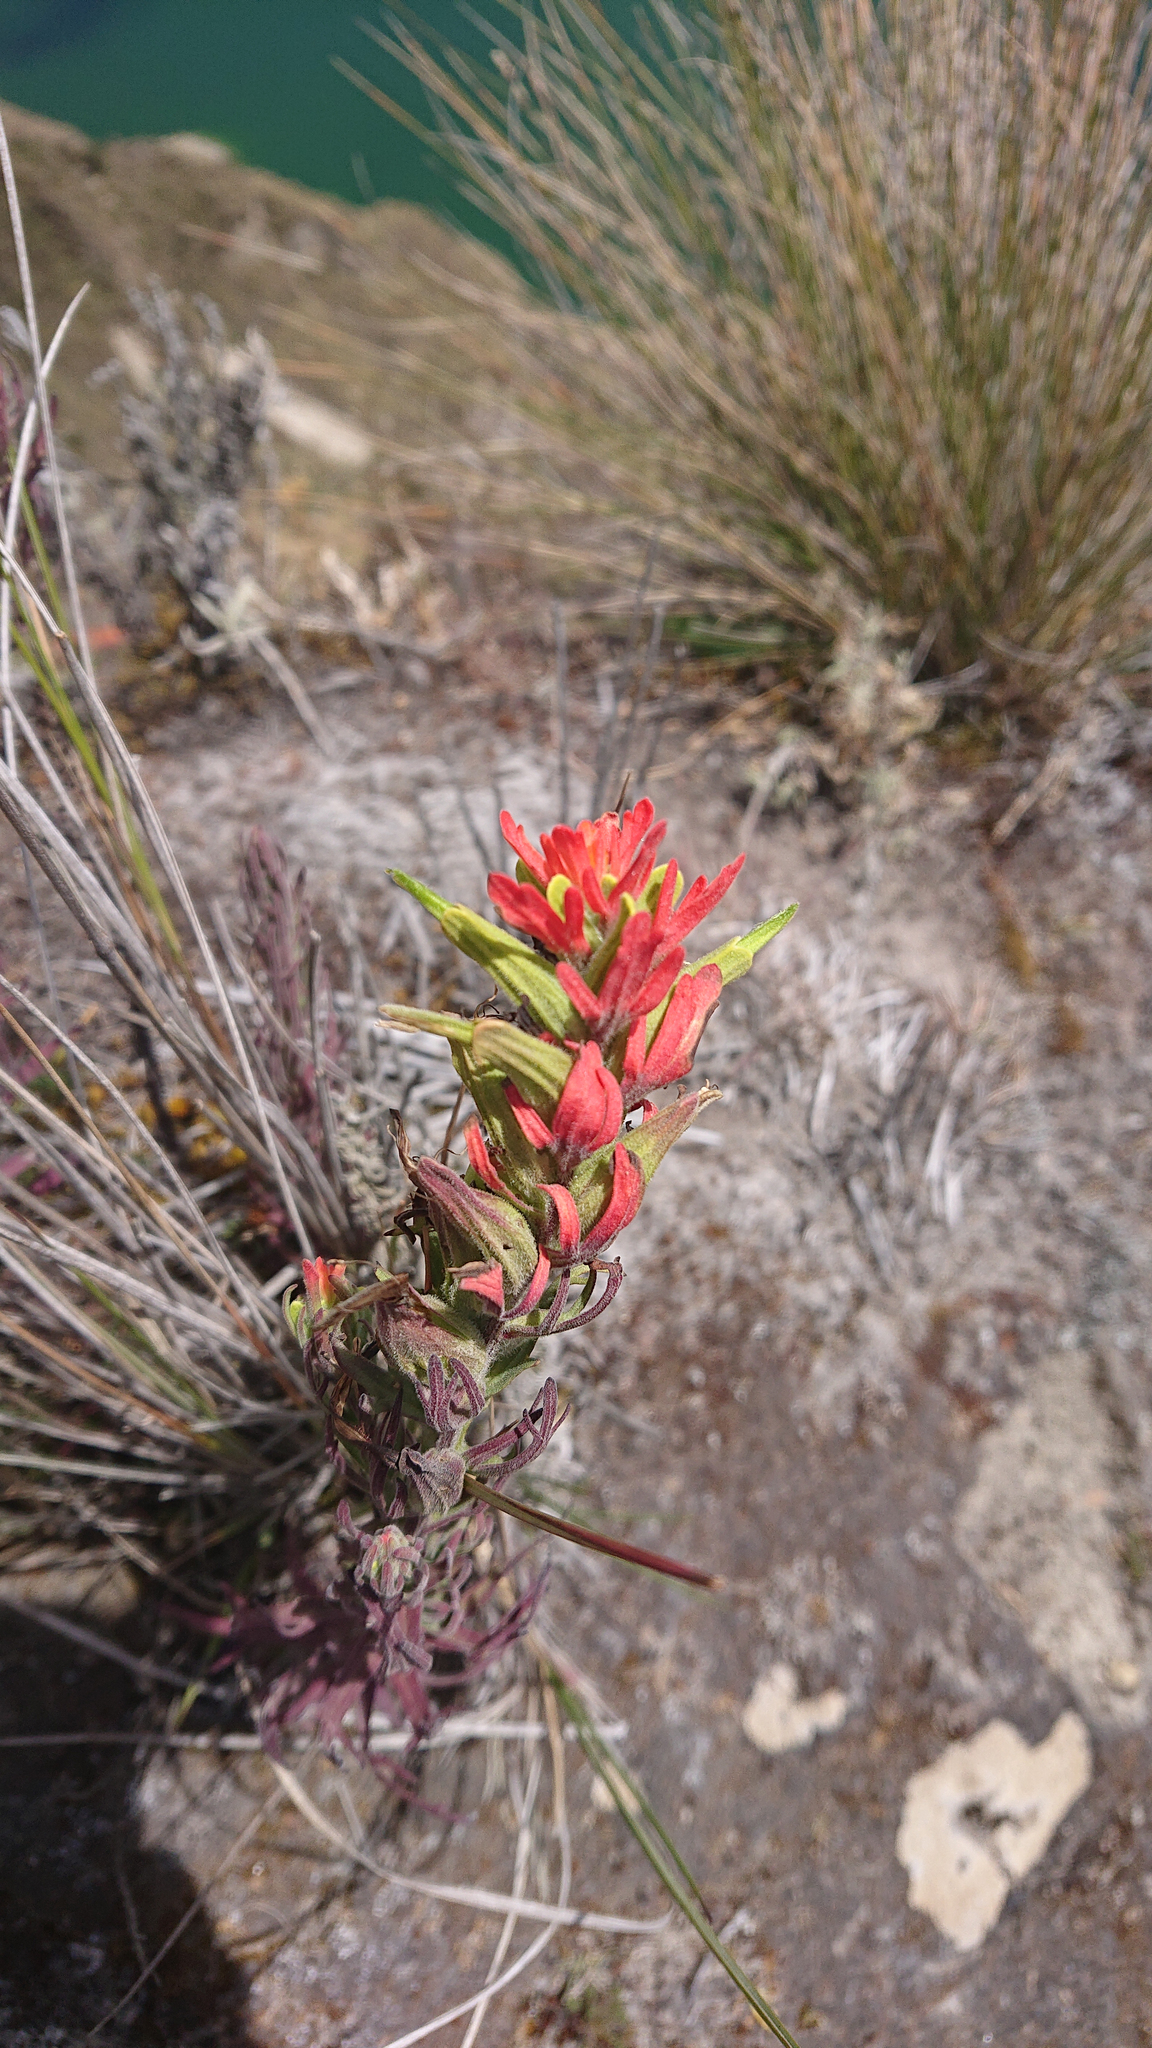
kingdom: Plantae
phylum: Tracheophyta
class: Magnoliopsida
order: Lamiales
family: Orobanchaceae
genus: Castilleja
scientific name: Castilleja fissifolia
